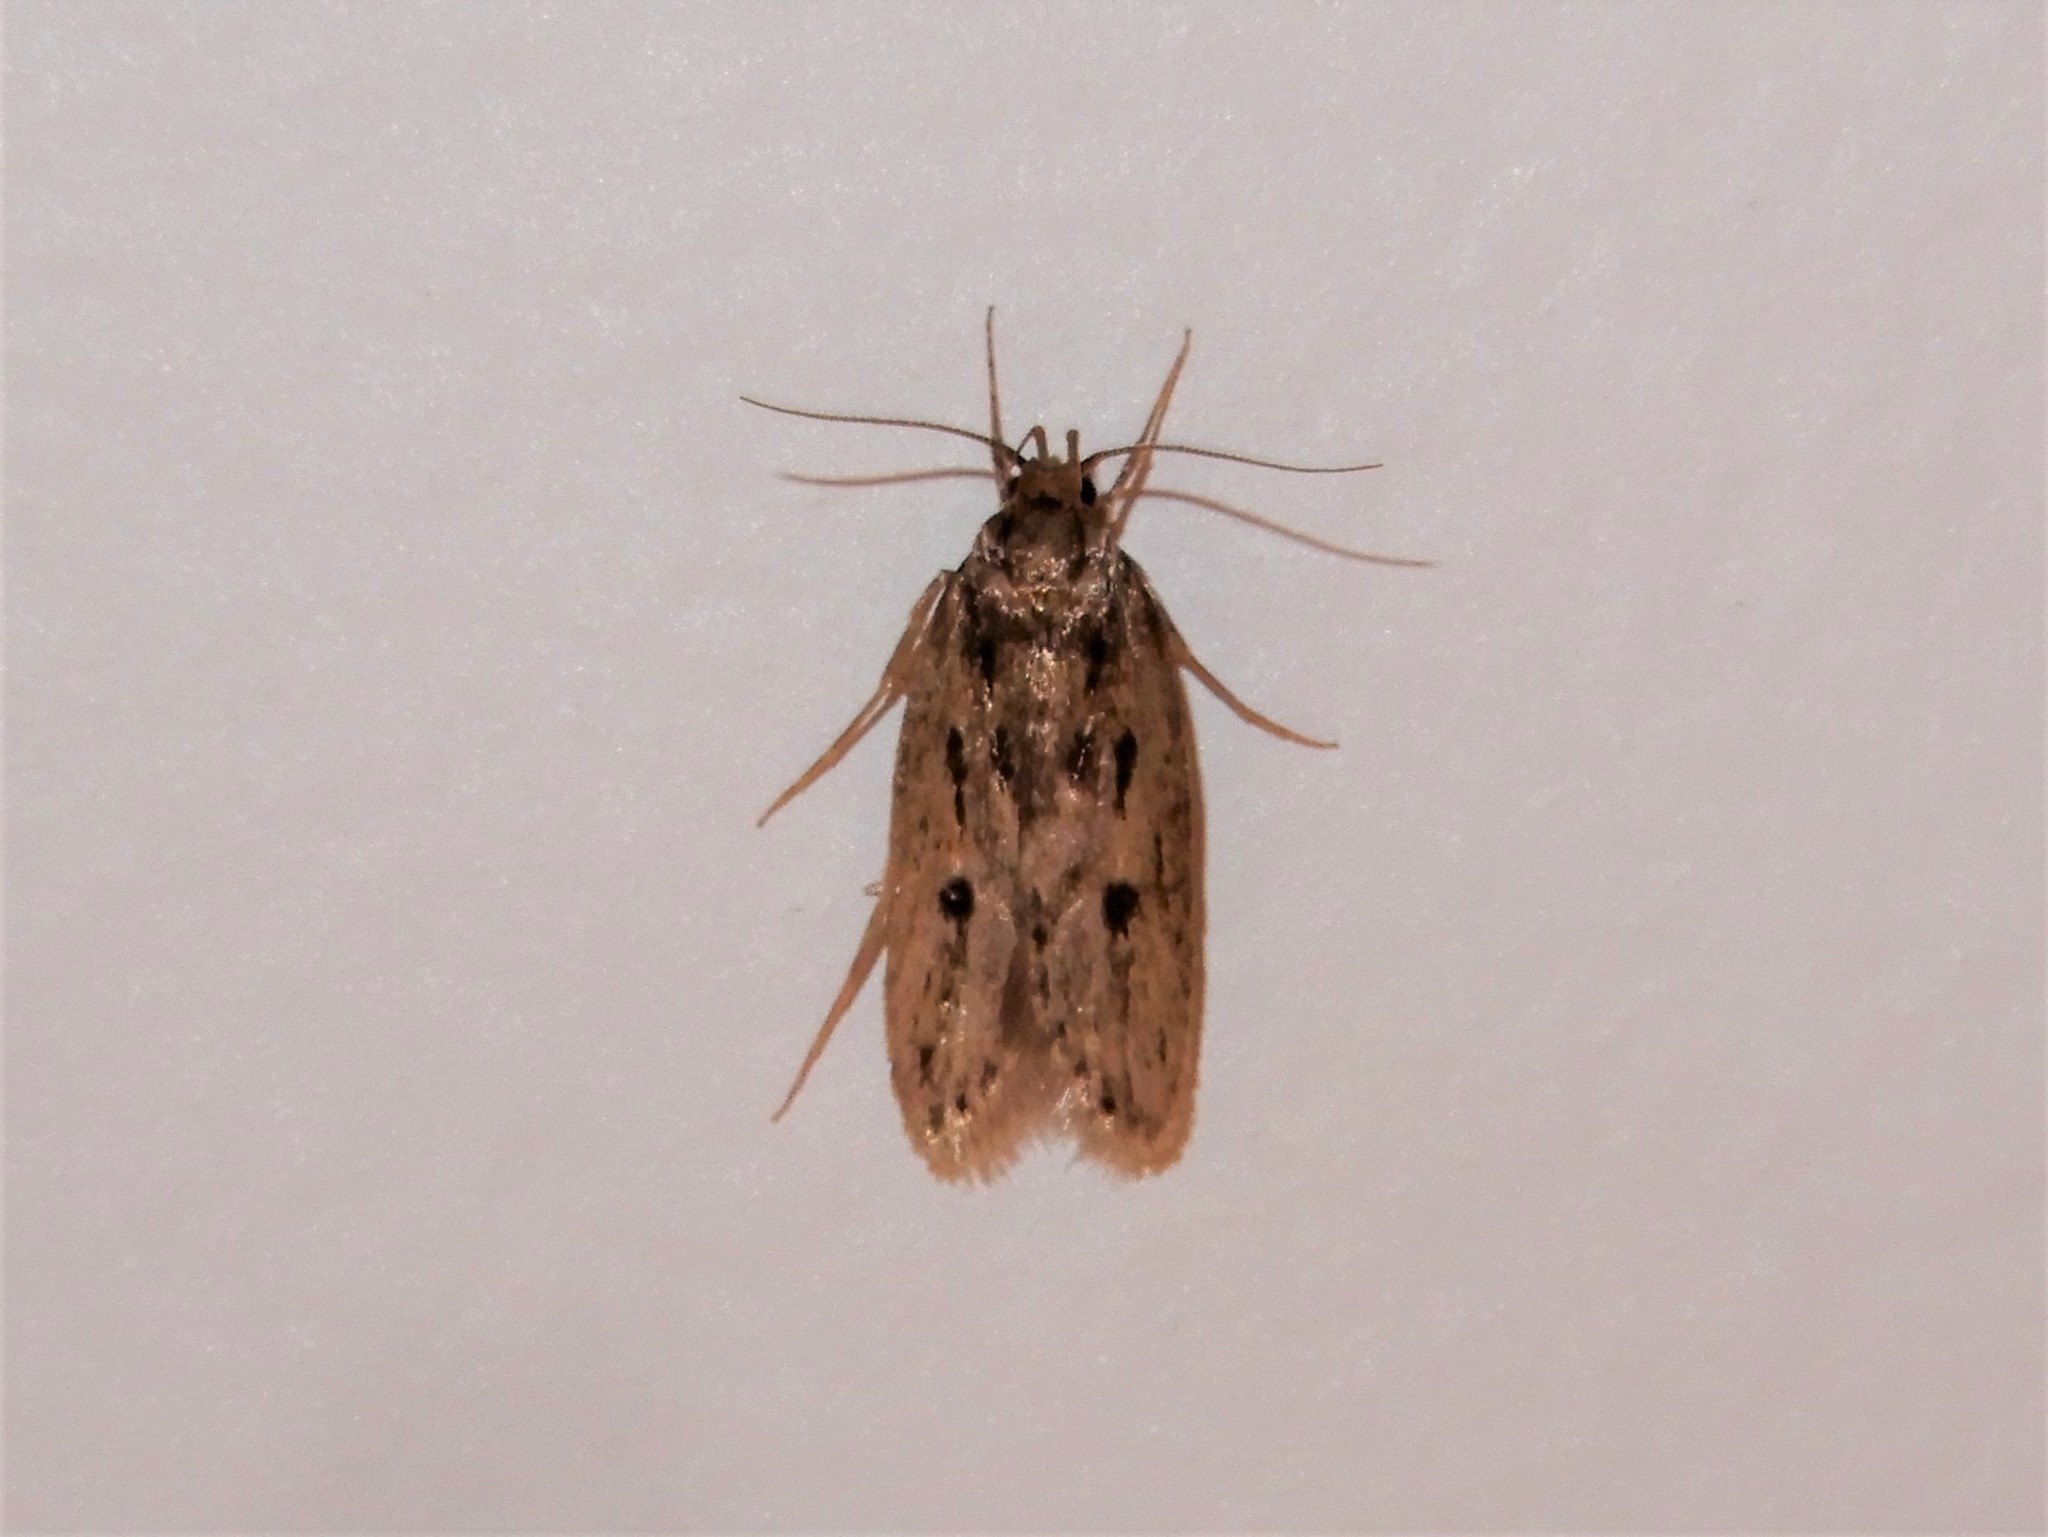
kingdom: Animalia
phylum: Arthropoda
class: Insecta
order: Lepidoptera
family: Oecophoridae
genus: Hofmannophila
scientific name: Hofmannophila pseudospretella
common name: Brown house moth
